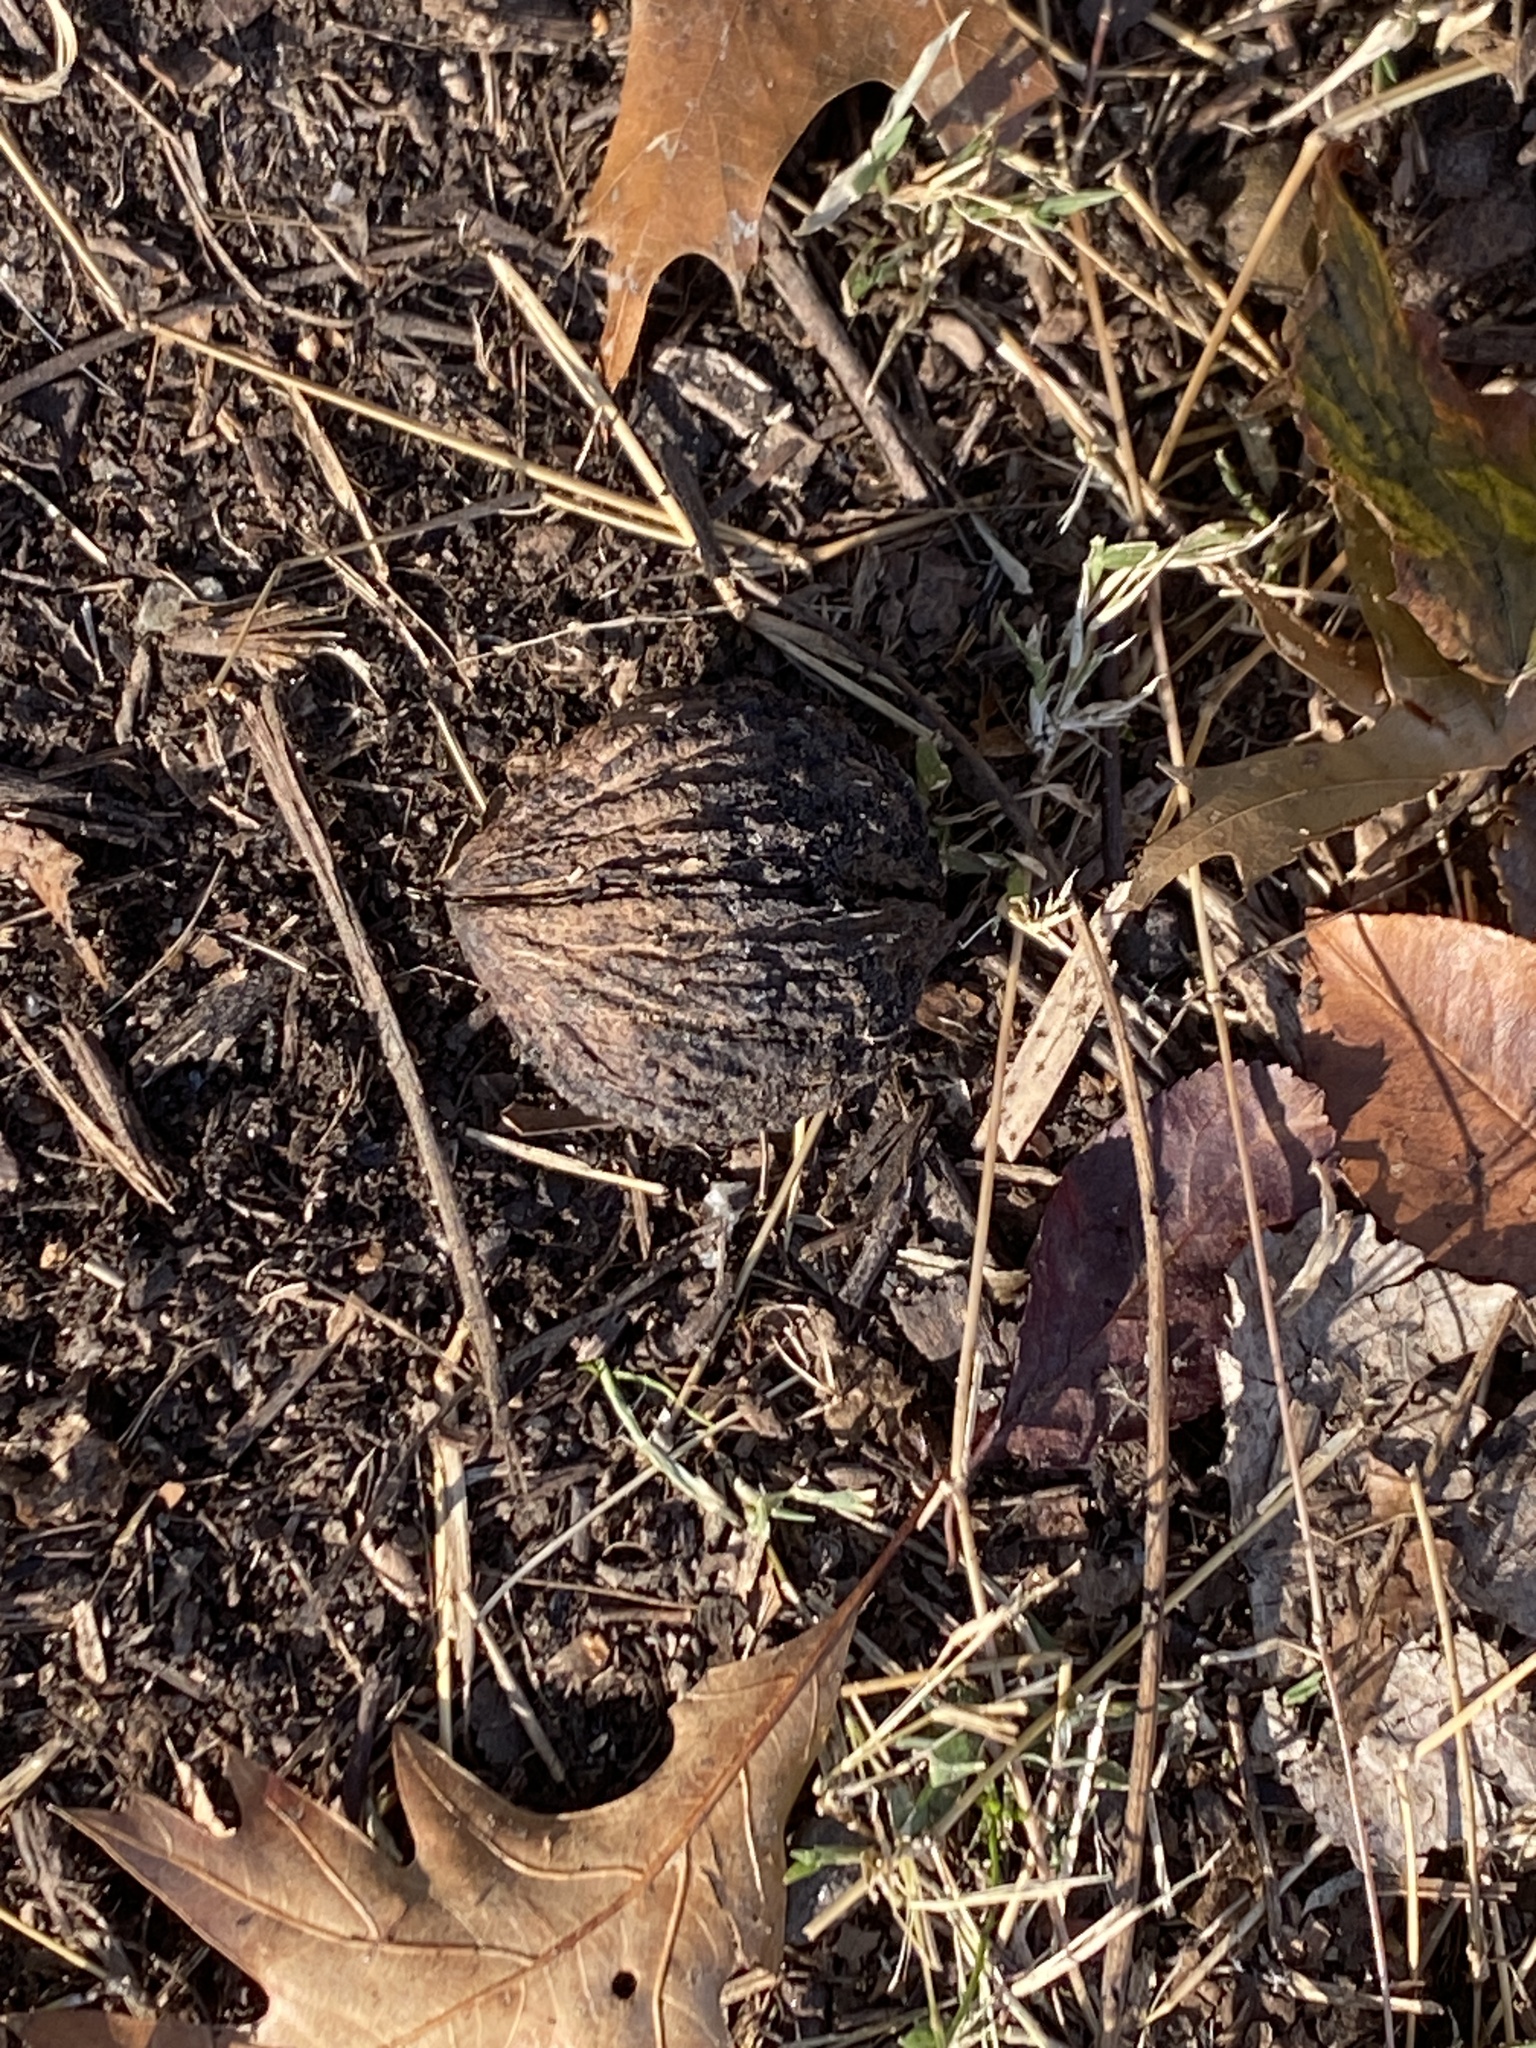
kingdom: Plantae
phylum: Tracheophyta
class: Magnoliopsida
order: Fagales
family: Juglandaceae
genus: Juglans
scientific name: Juglans nigra
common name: Black walnut
